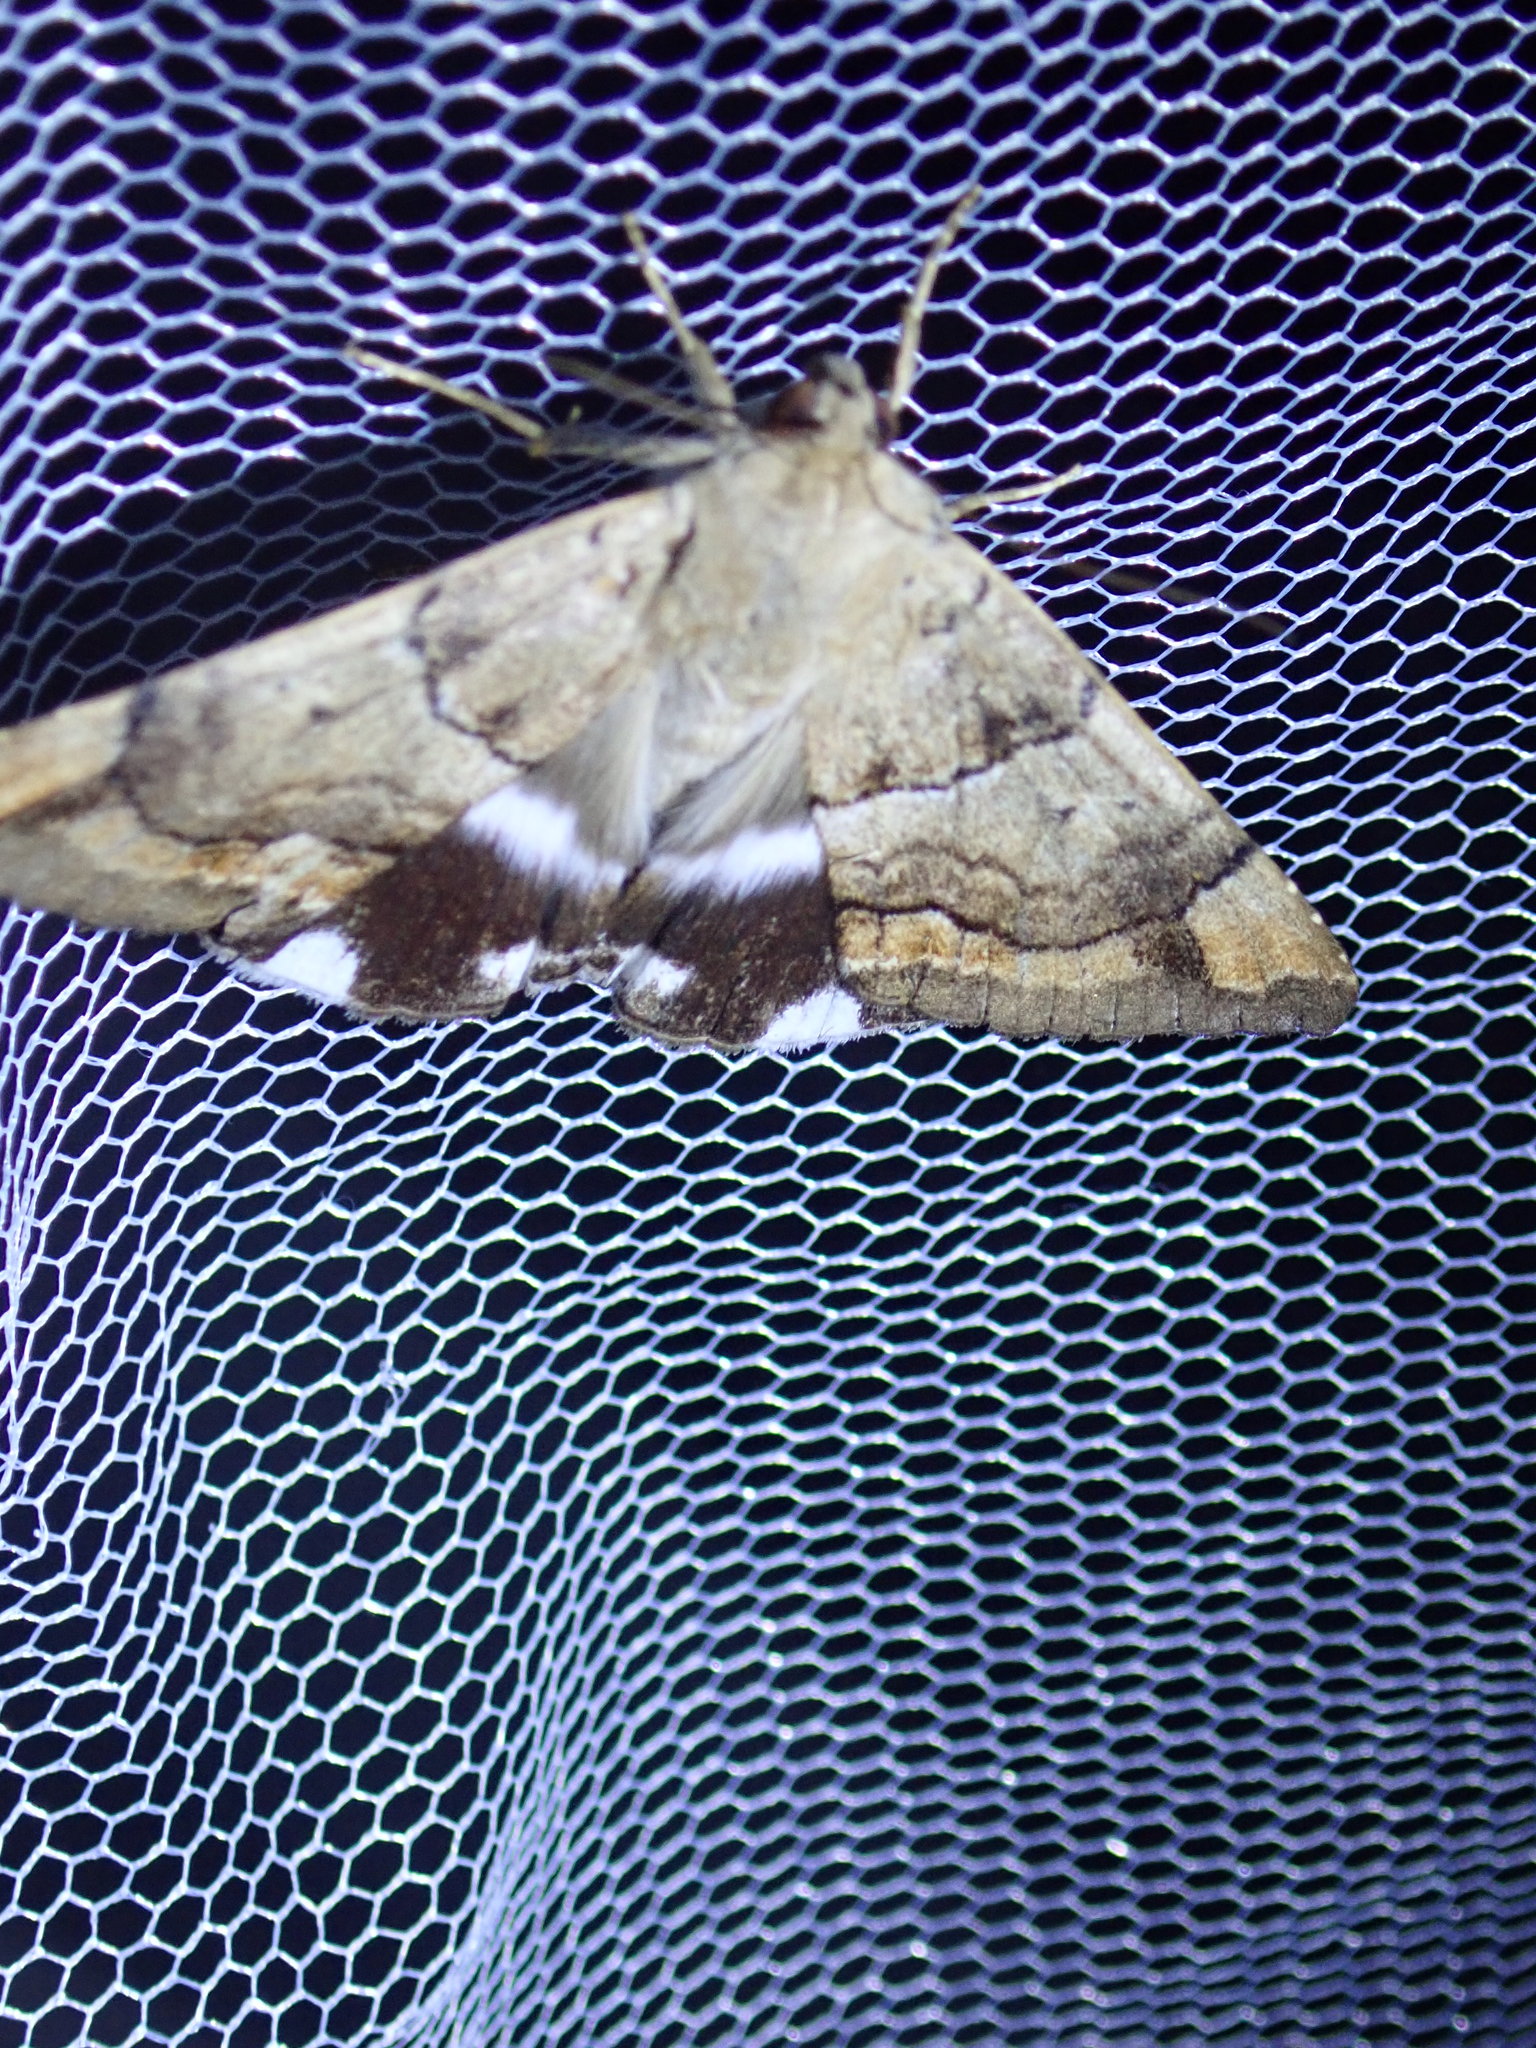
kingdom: Animalia
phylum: Arthropoda
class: Insecta
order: Lepidoptera
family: Erebidae
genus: Achaea
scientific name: Achaea janata
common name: Croton caterpillar
